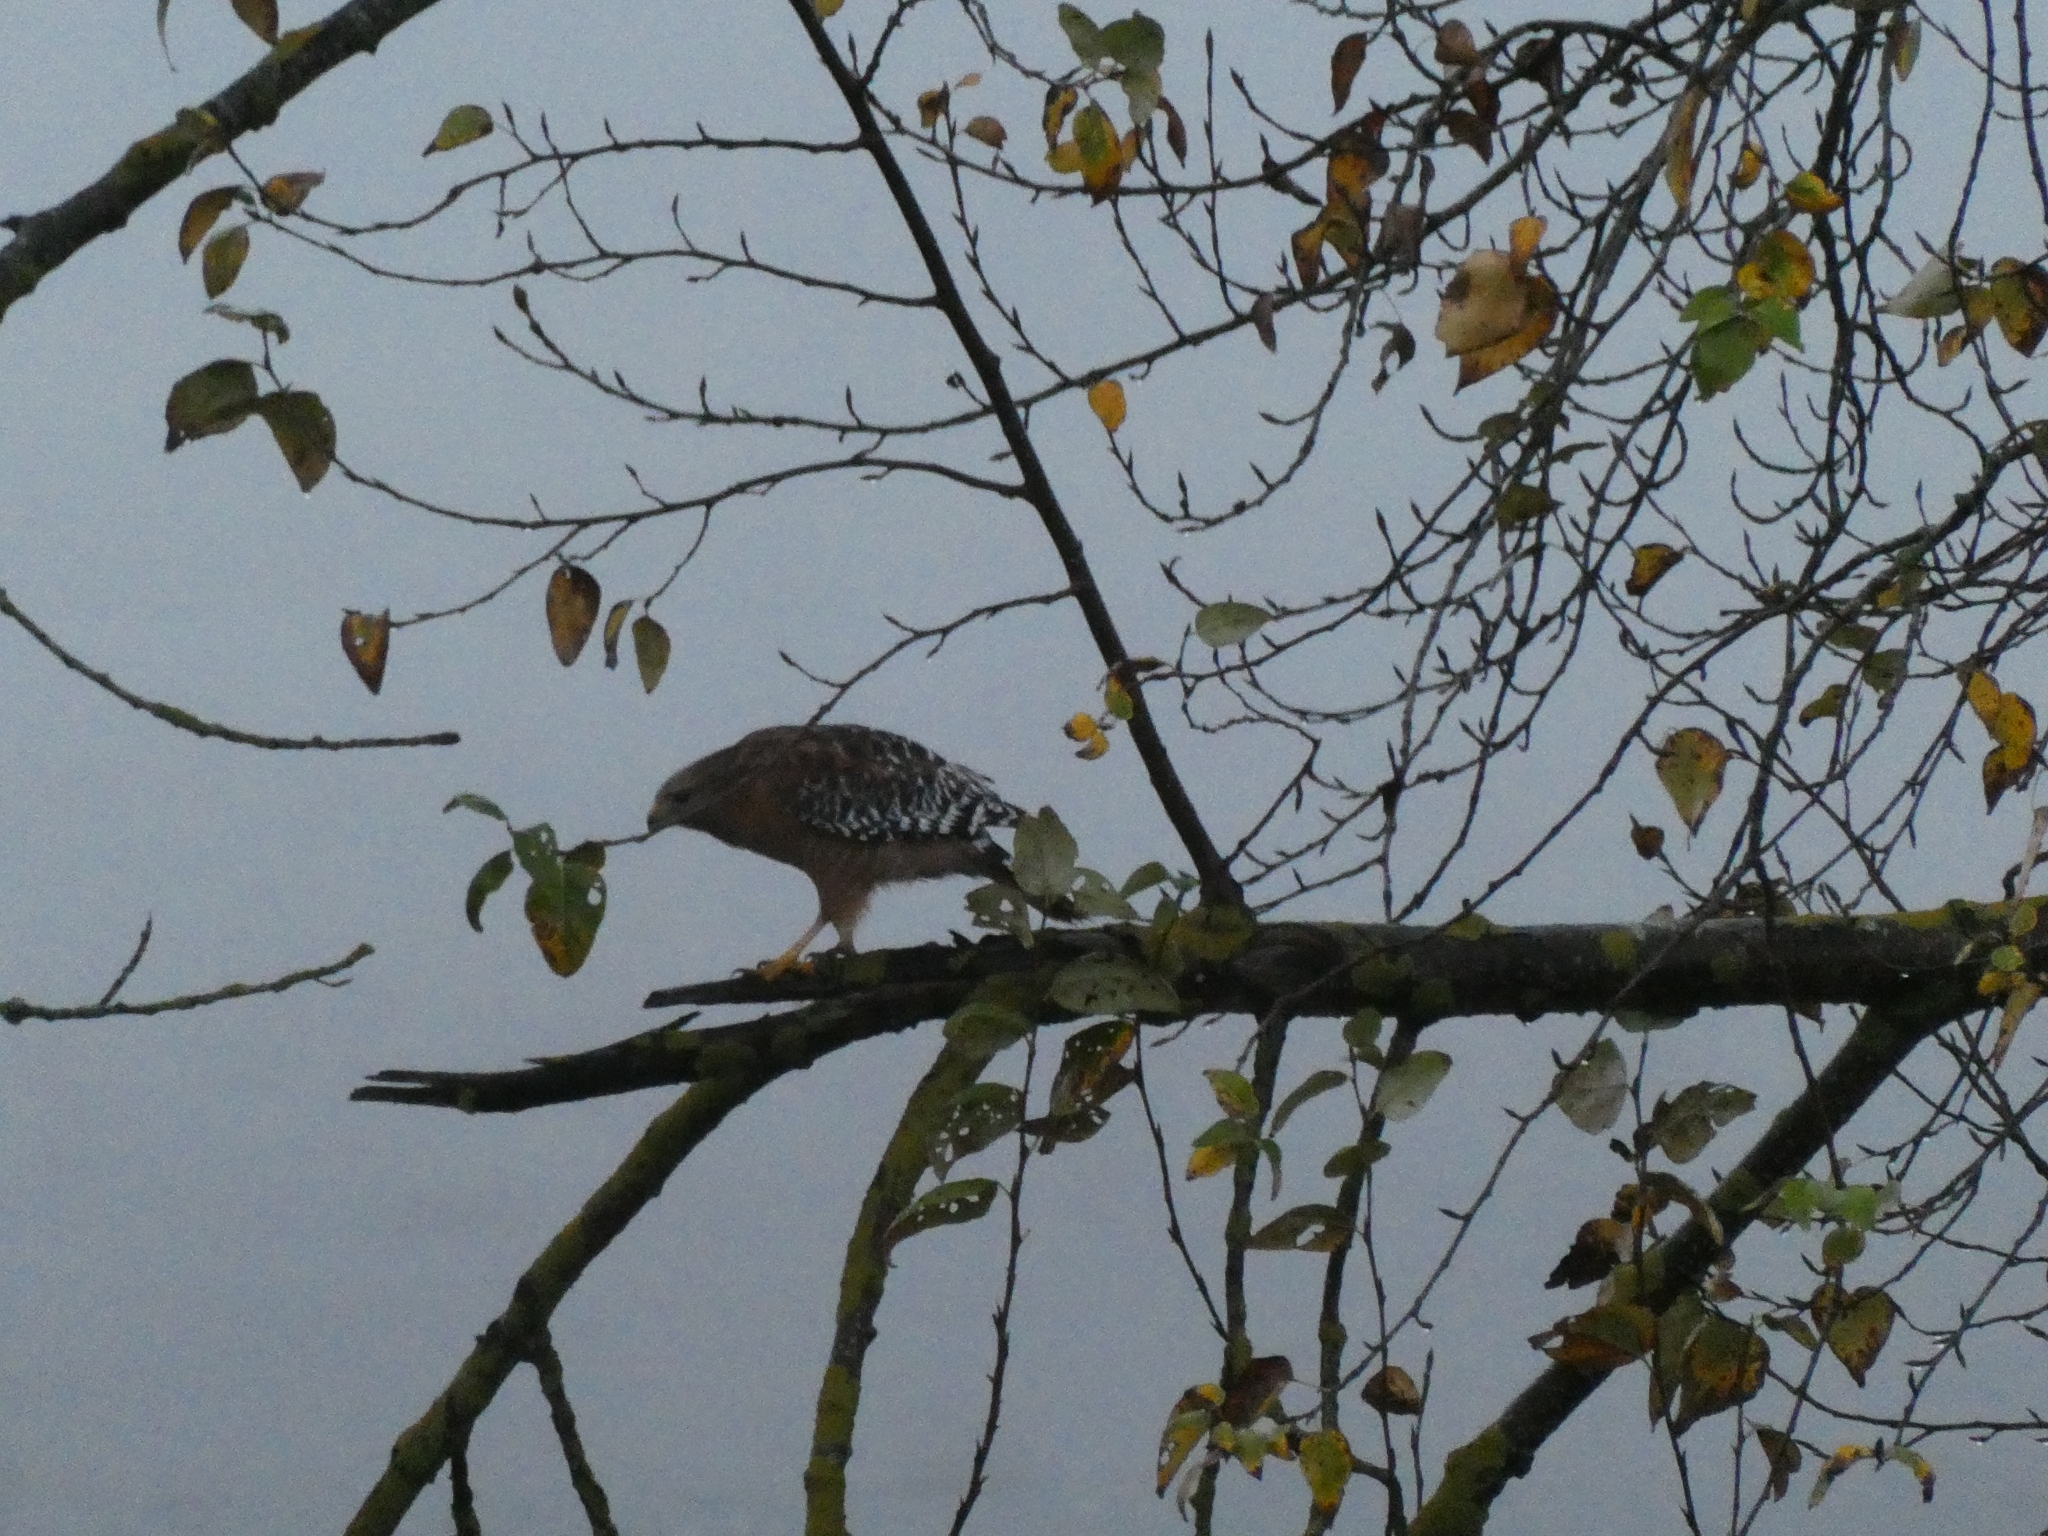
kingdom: Animalia
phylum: Chordata
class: Aves
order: Accipitriformes
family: Accipitridae
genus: Buteo
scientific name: Buteo lineatus
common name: Red-shouldered hawk
